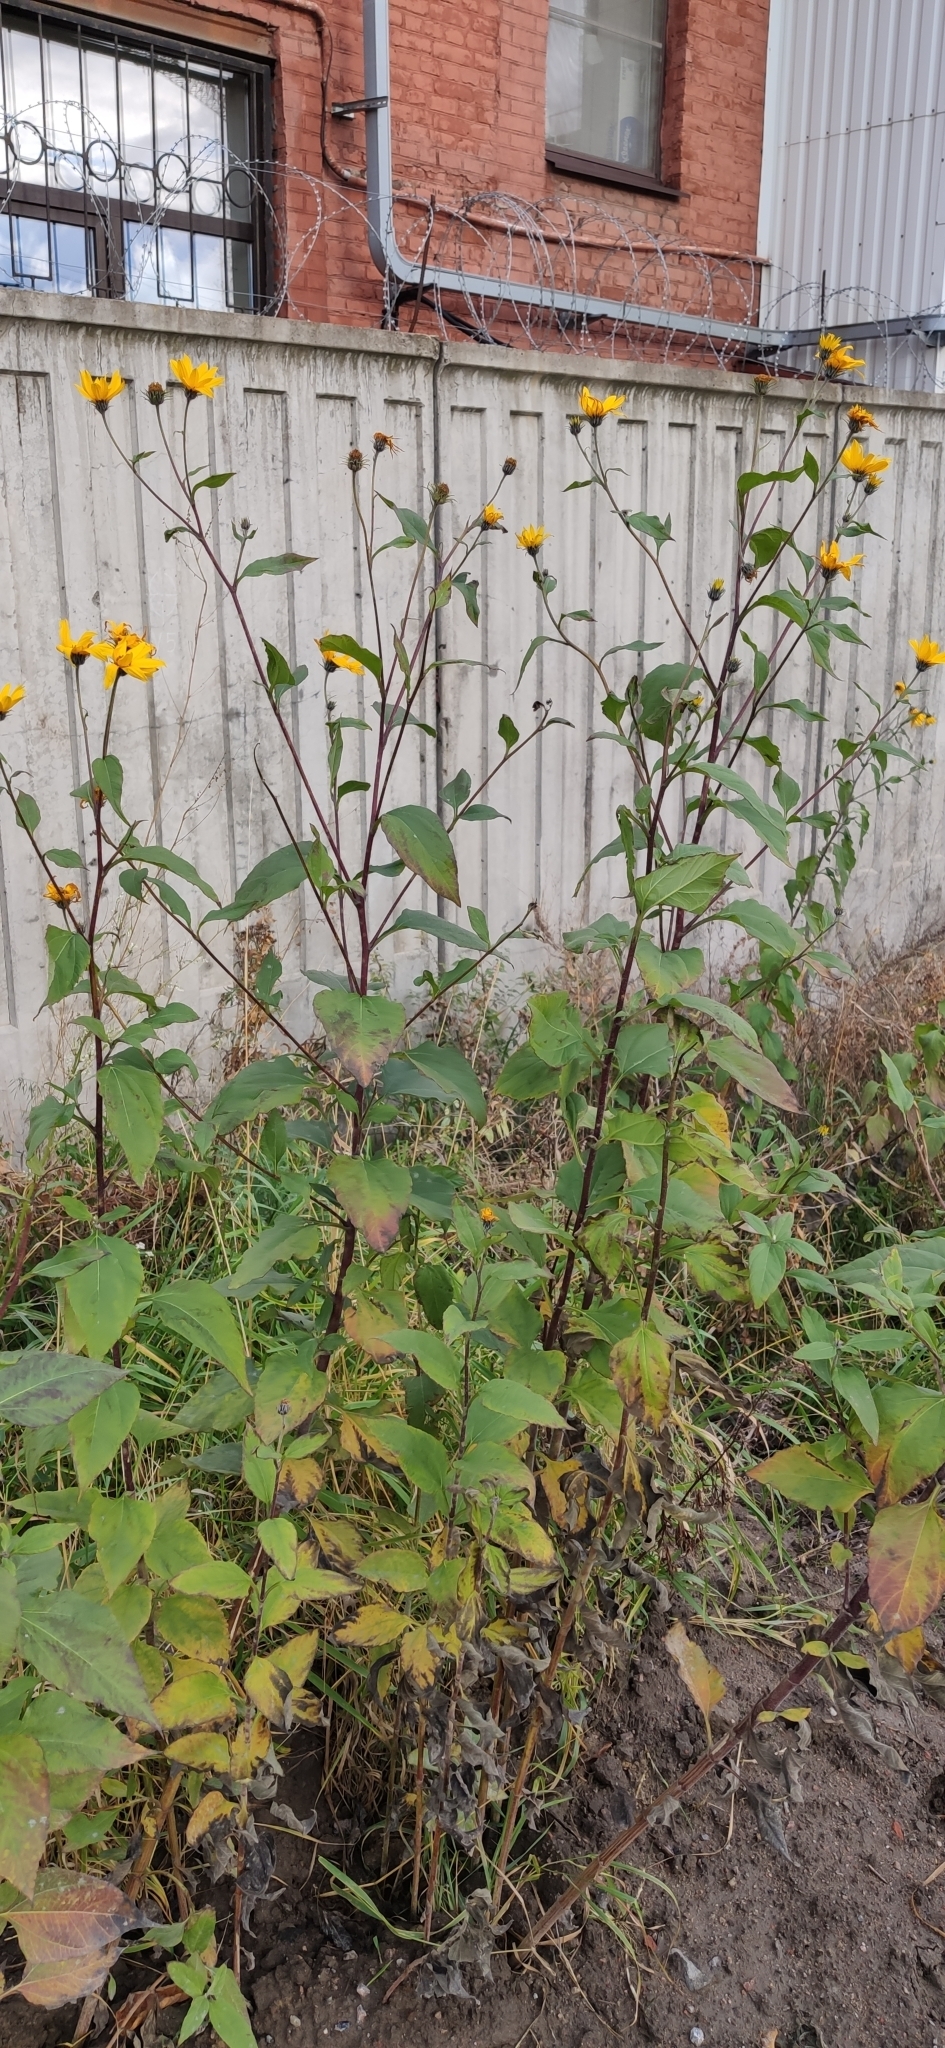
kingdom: Plantae
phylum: Tracheophyta
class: Magnoliopsida
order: Asterales
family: Asteraceae
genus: Helianthus
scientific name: Helianthus tuberosus
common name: Jerusalem artichoke
